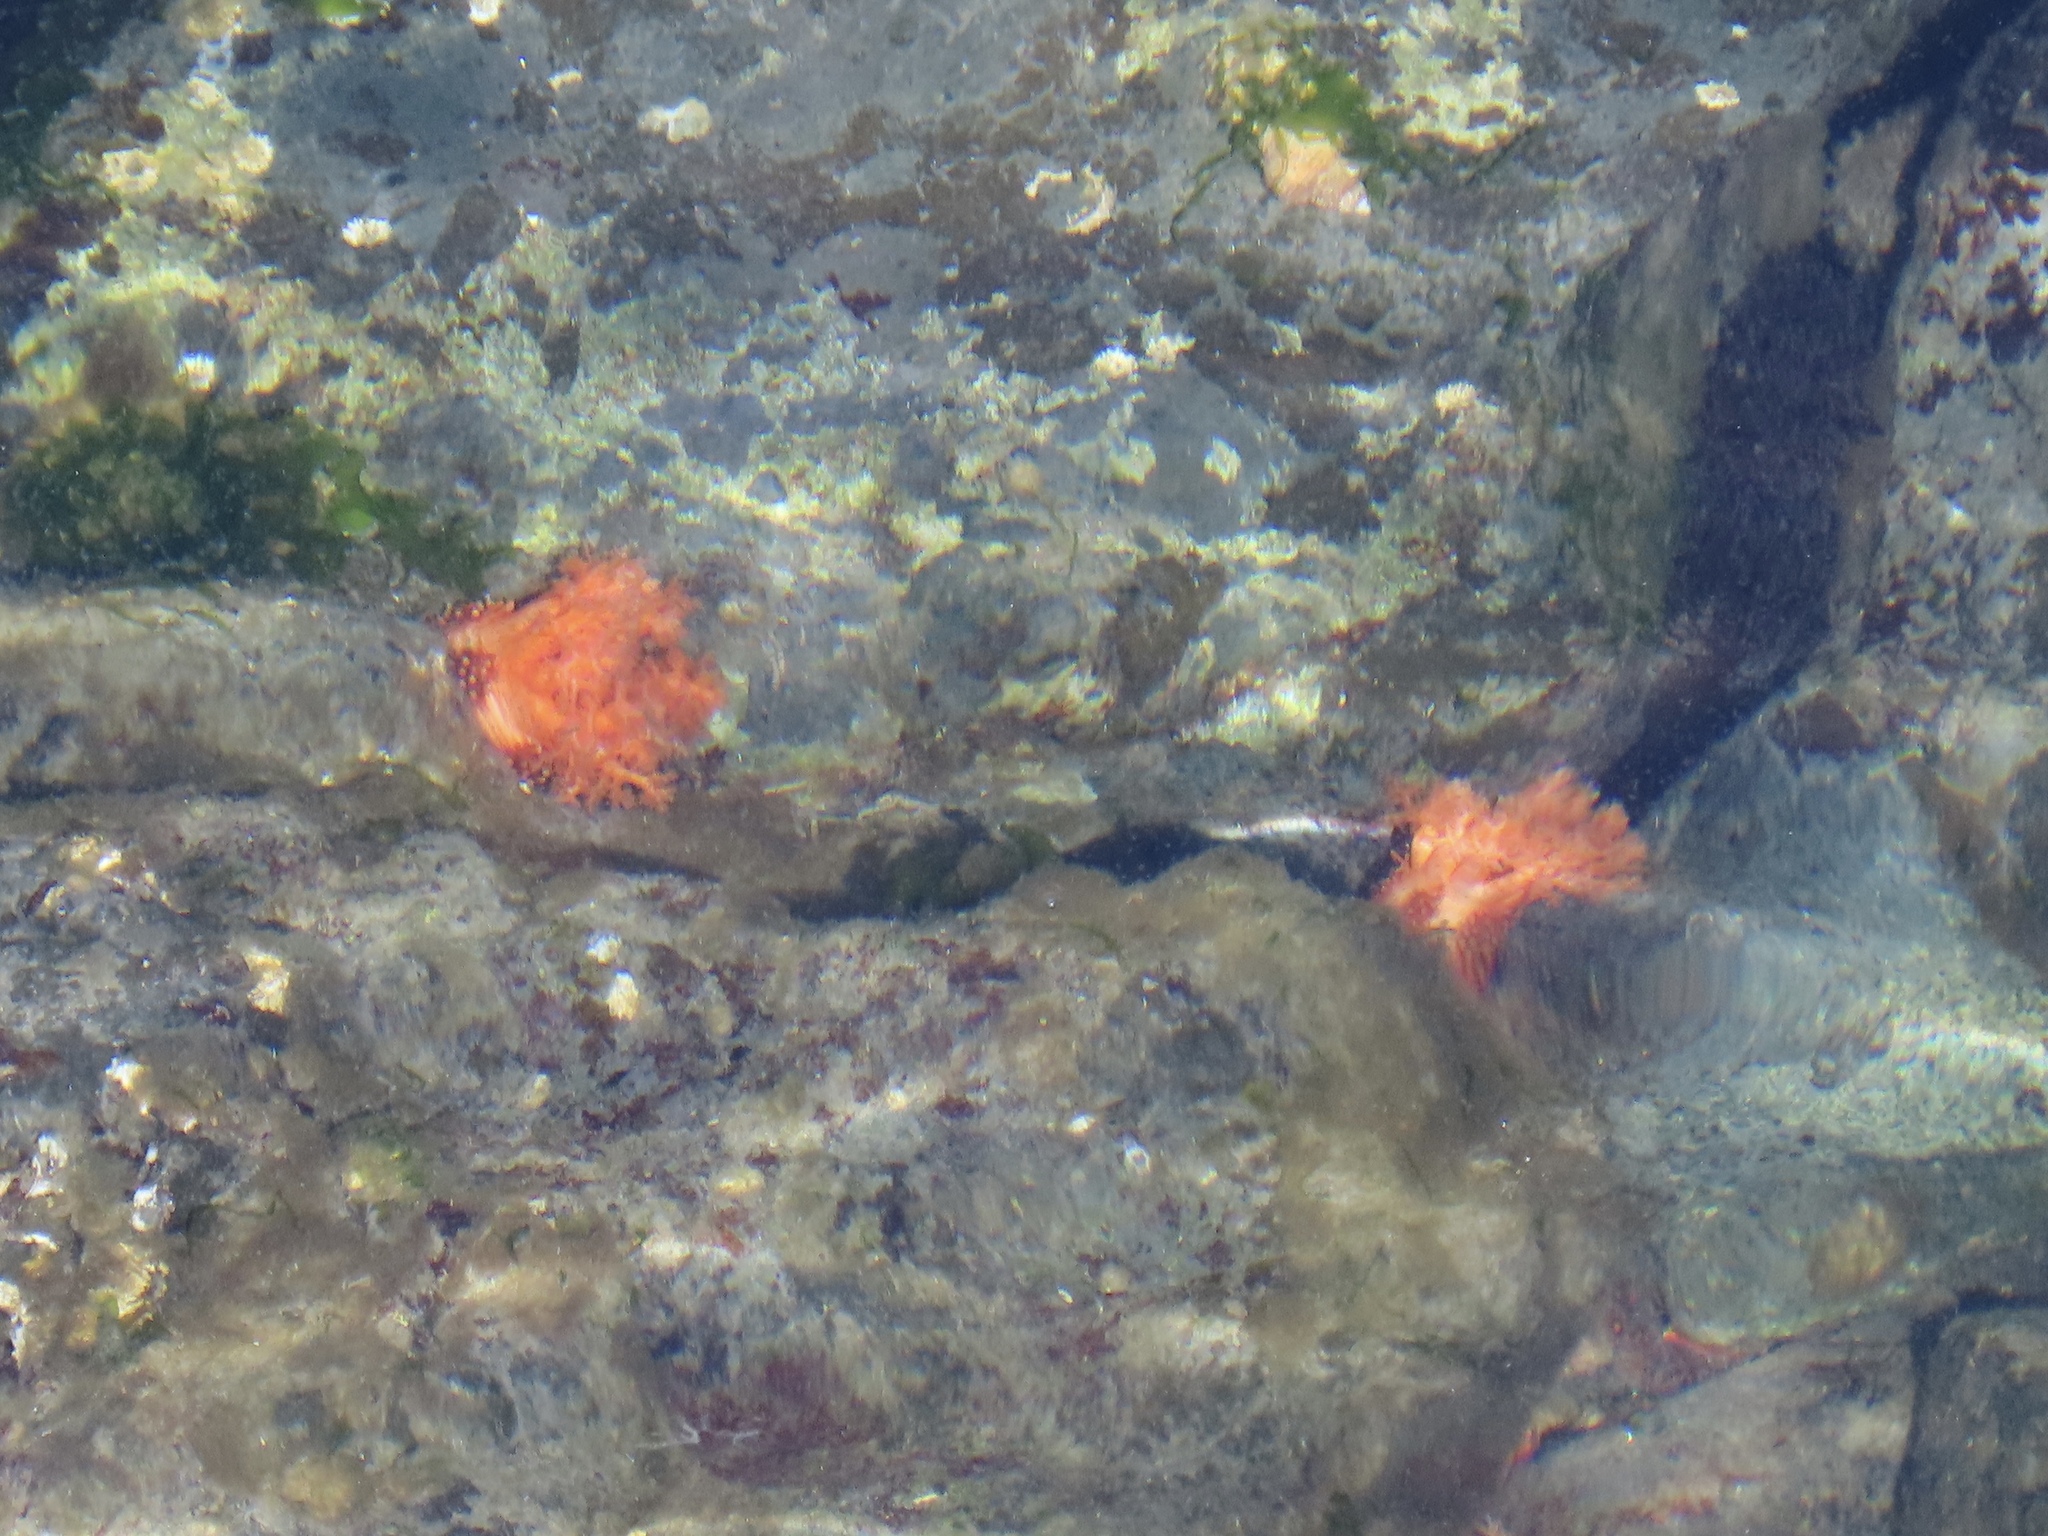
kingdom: Animalia
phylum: Echinodermata
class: Holothuroidea
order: Dendrochirotida
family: Cucumariidae
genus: Cucumaria
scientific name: Cucumaria miniata
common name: Orange sea cucumber
